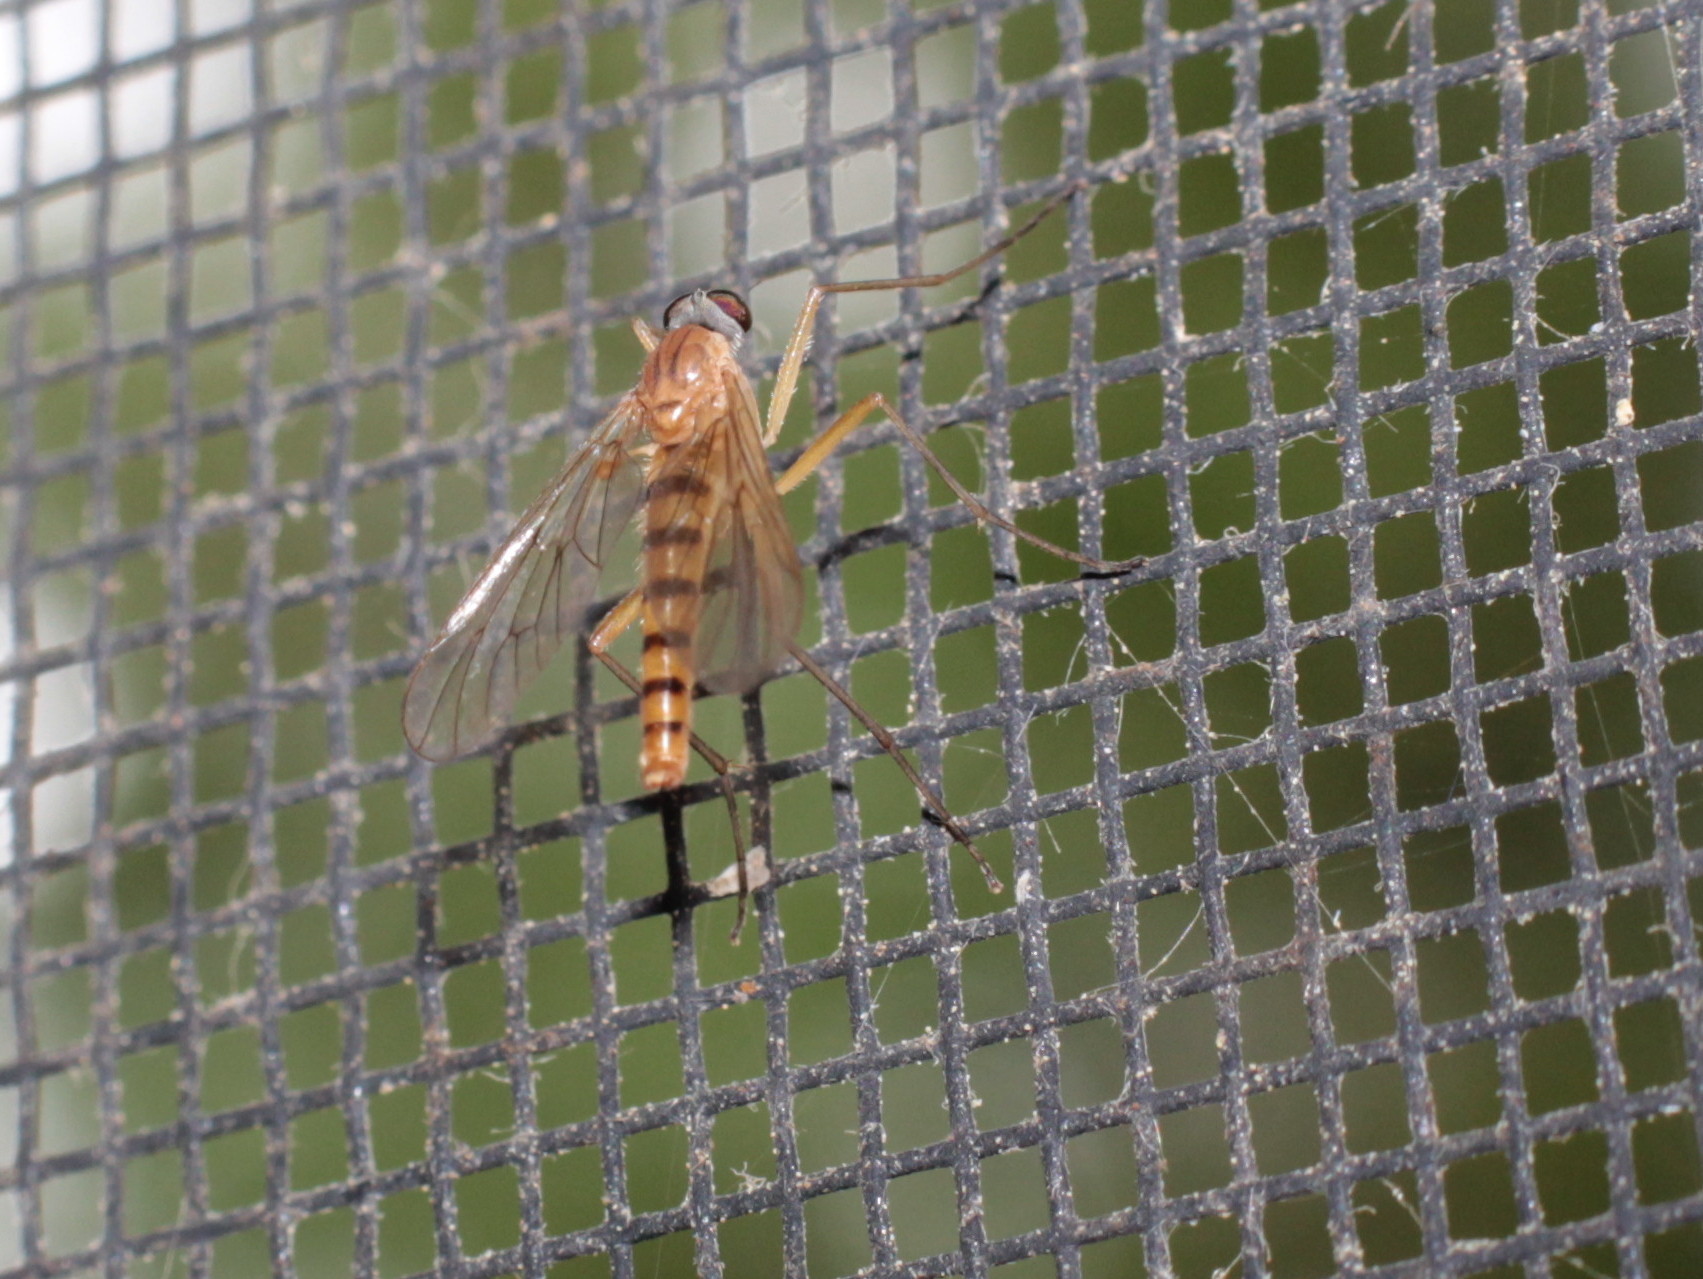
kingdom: Animalia
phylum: Arthropoda
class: Insecta
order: Diptera
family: Rhagionidae
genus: Rhagio
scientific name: Rhagio gracilis
